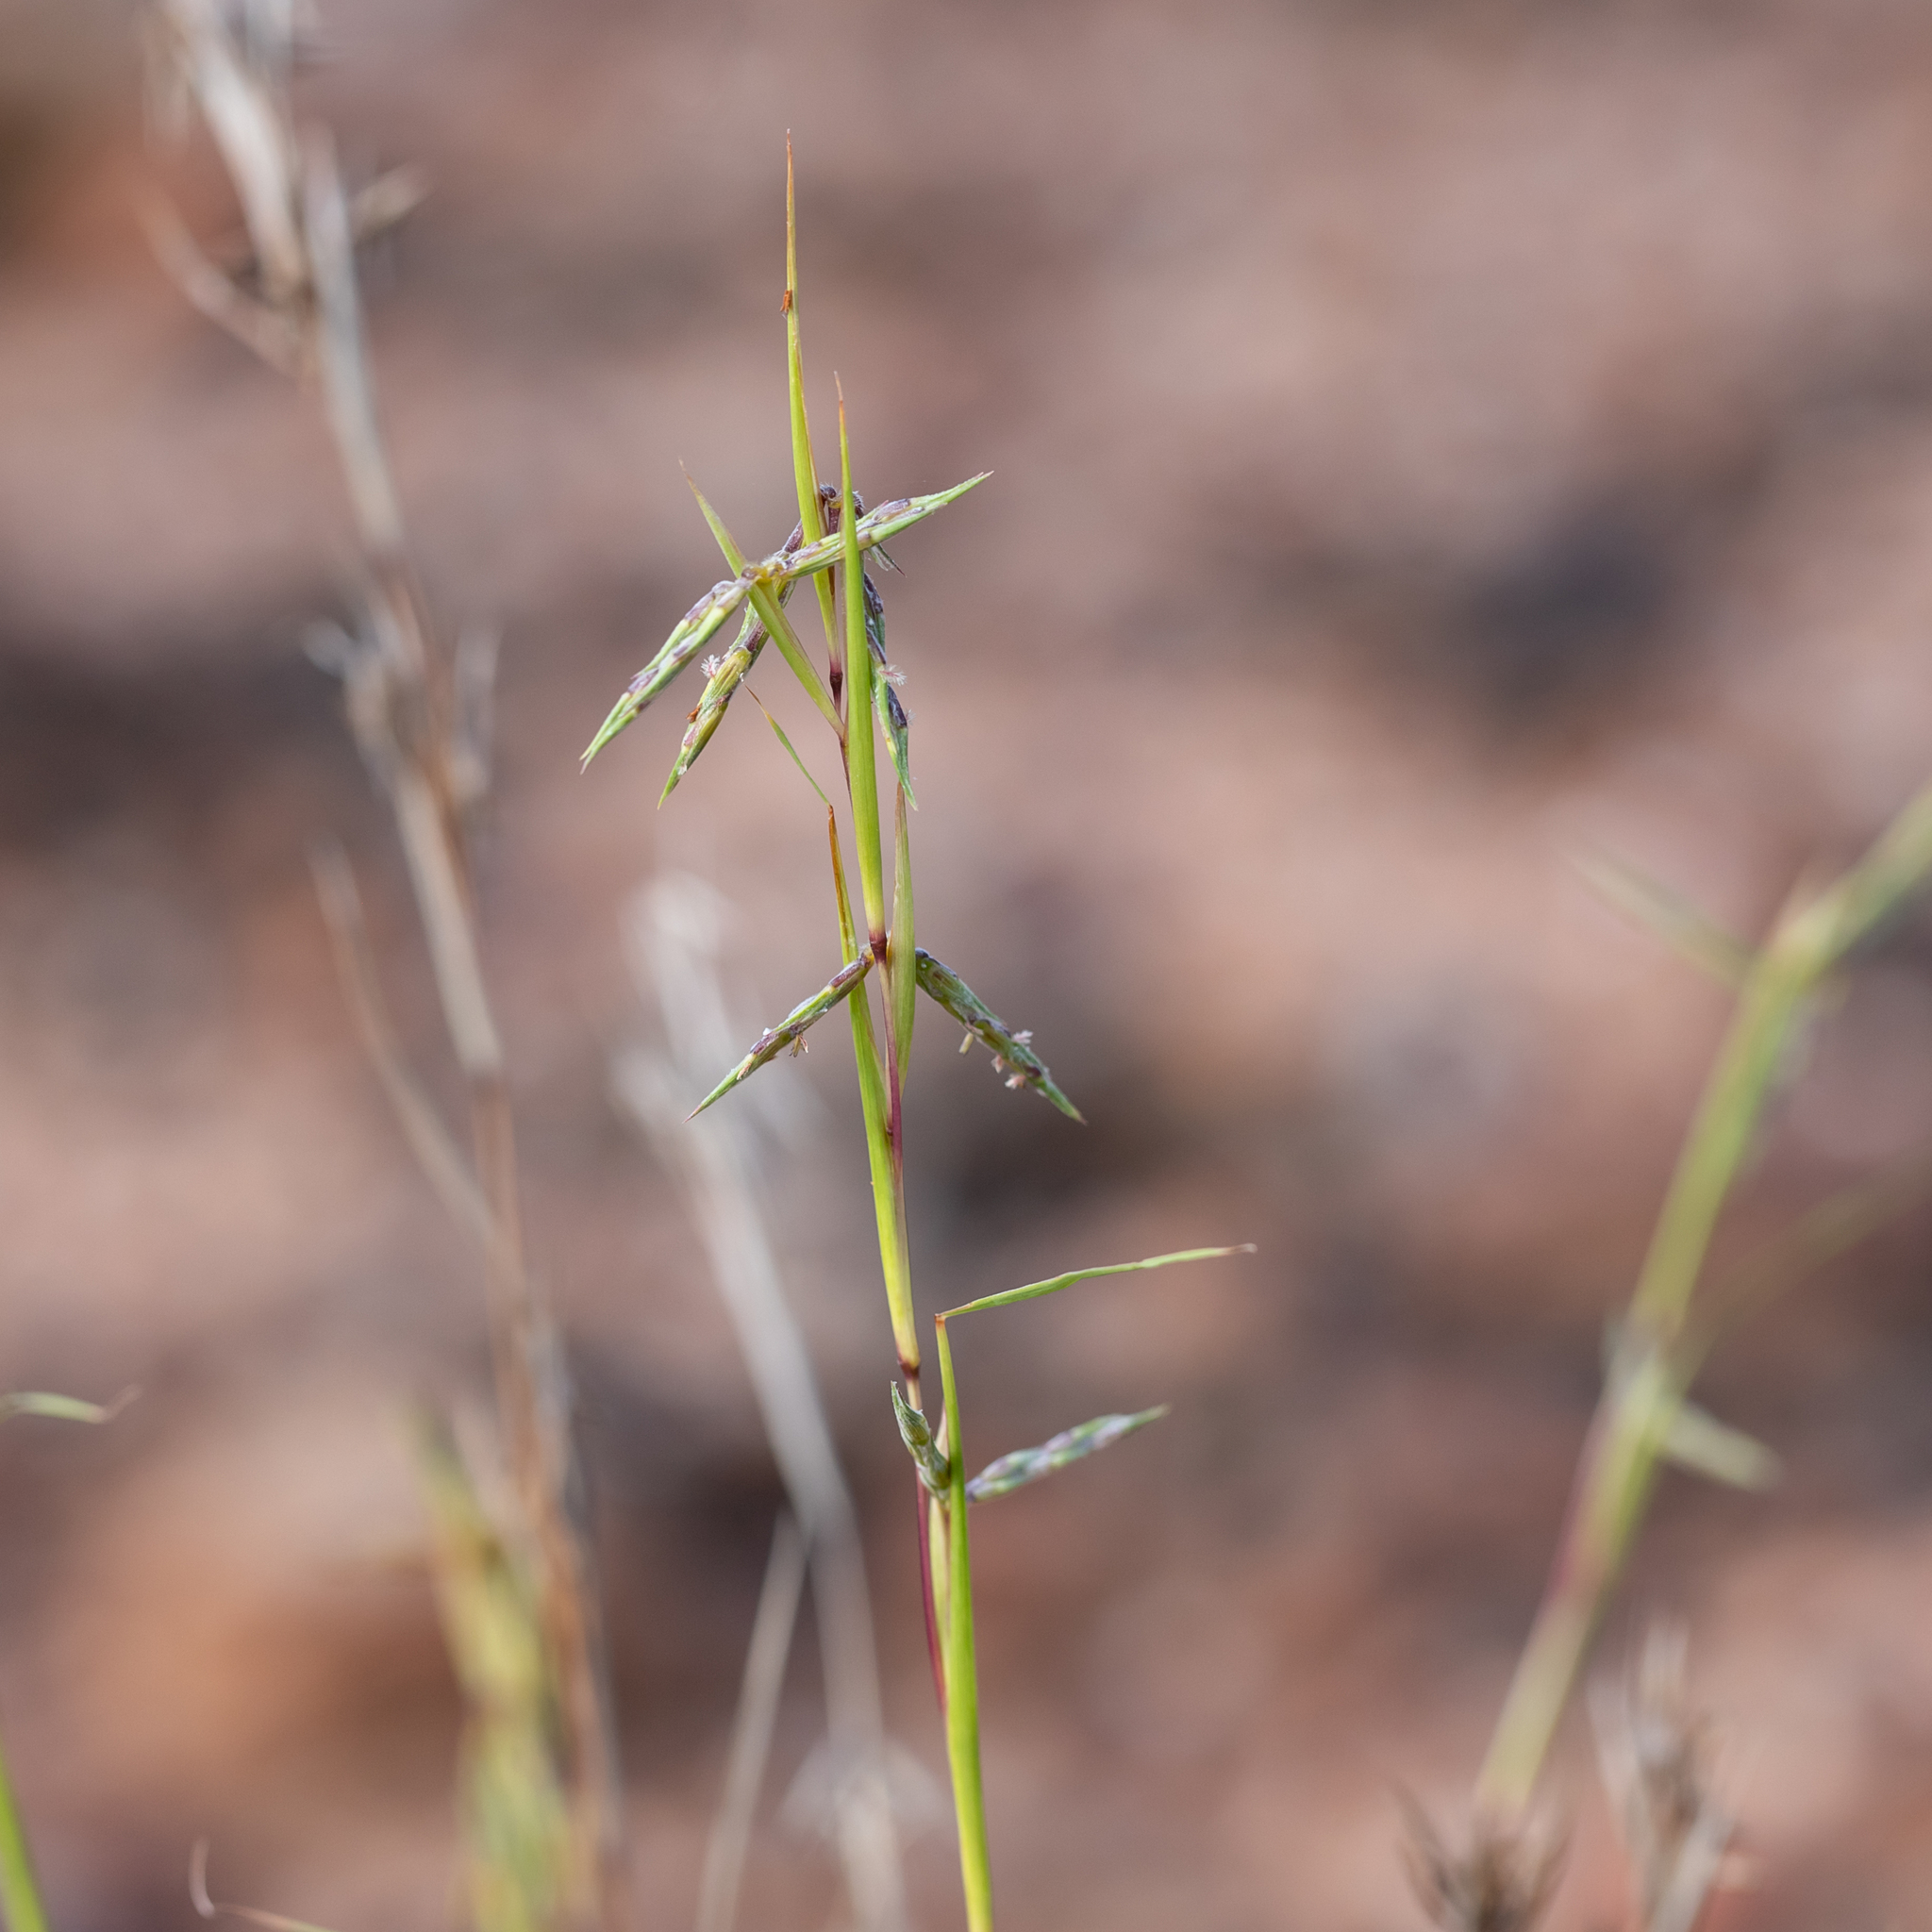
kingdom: Plantae
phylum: Tracheophyta
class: Liliopsida
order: Poales
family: Poaceae
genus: Cymbopogon
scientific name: Cymbopogon refractus
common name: Barbwire grass
